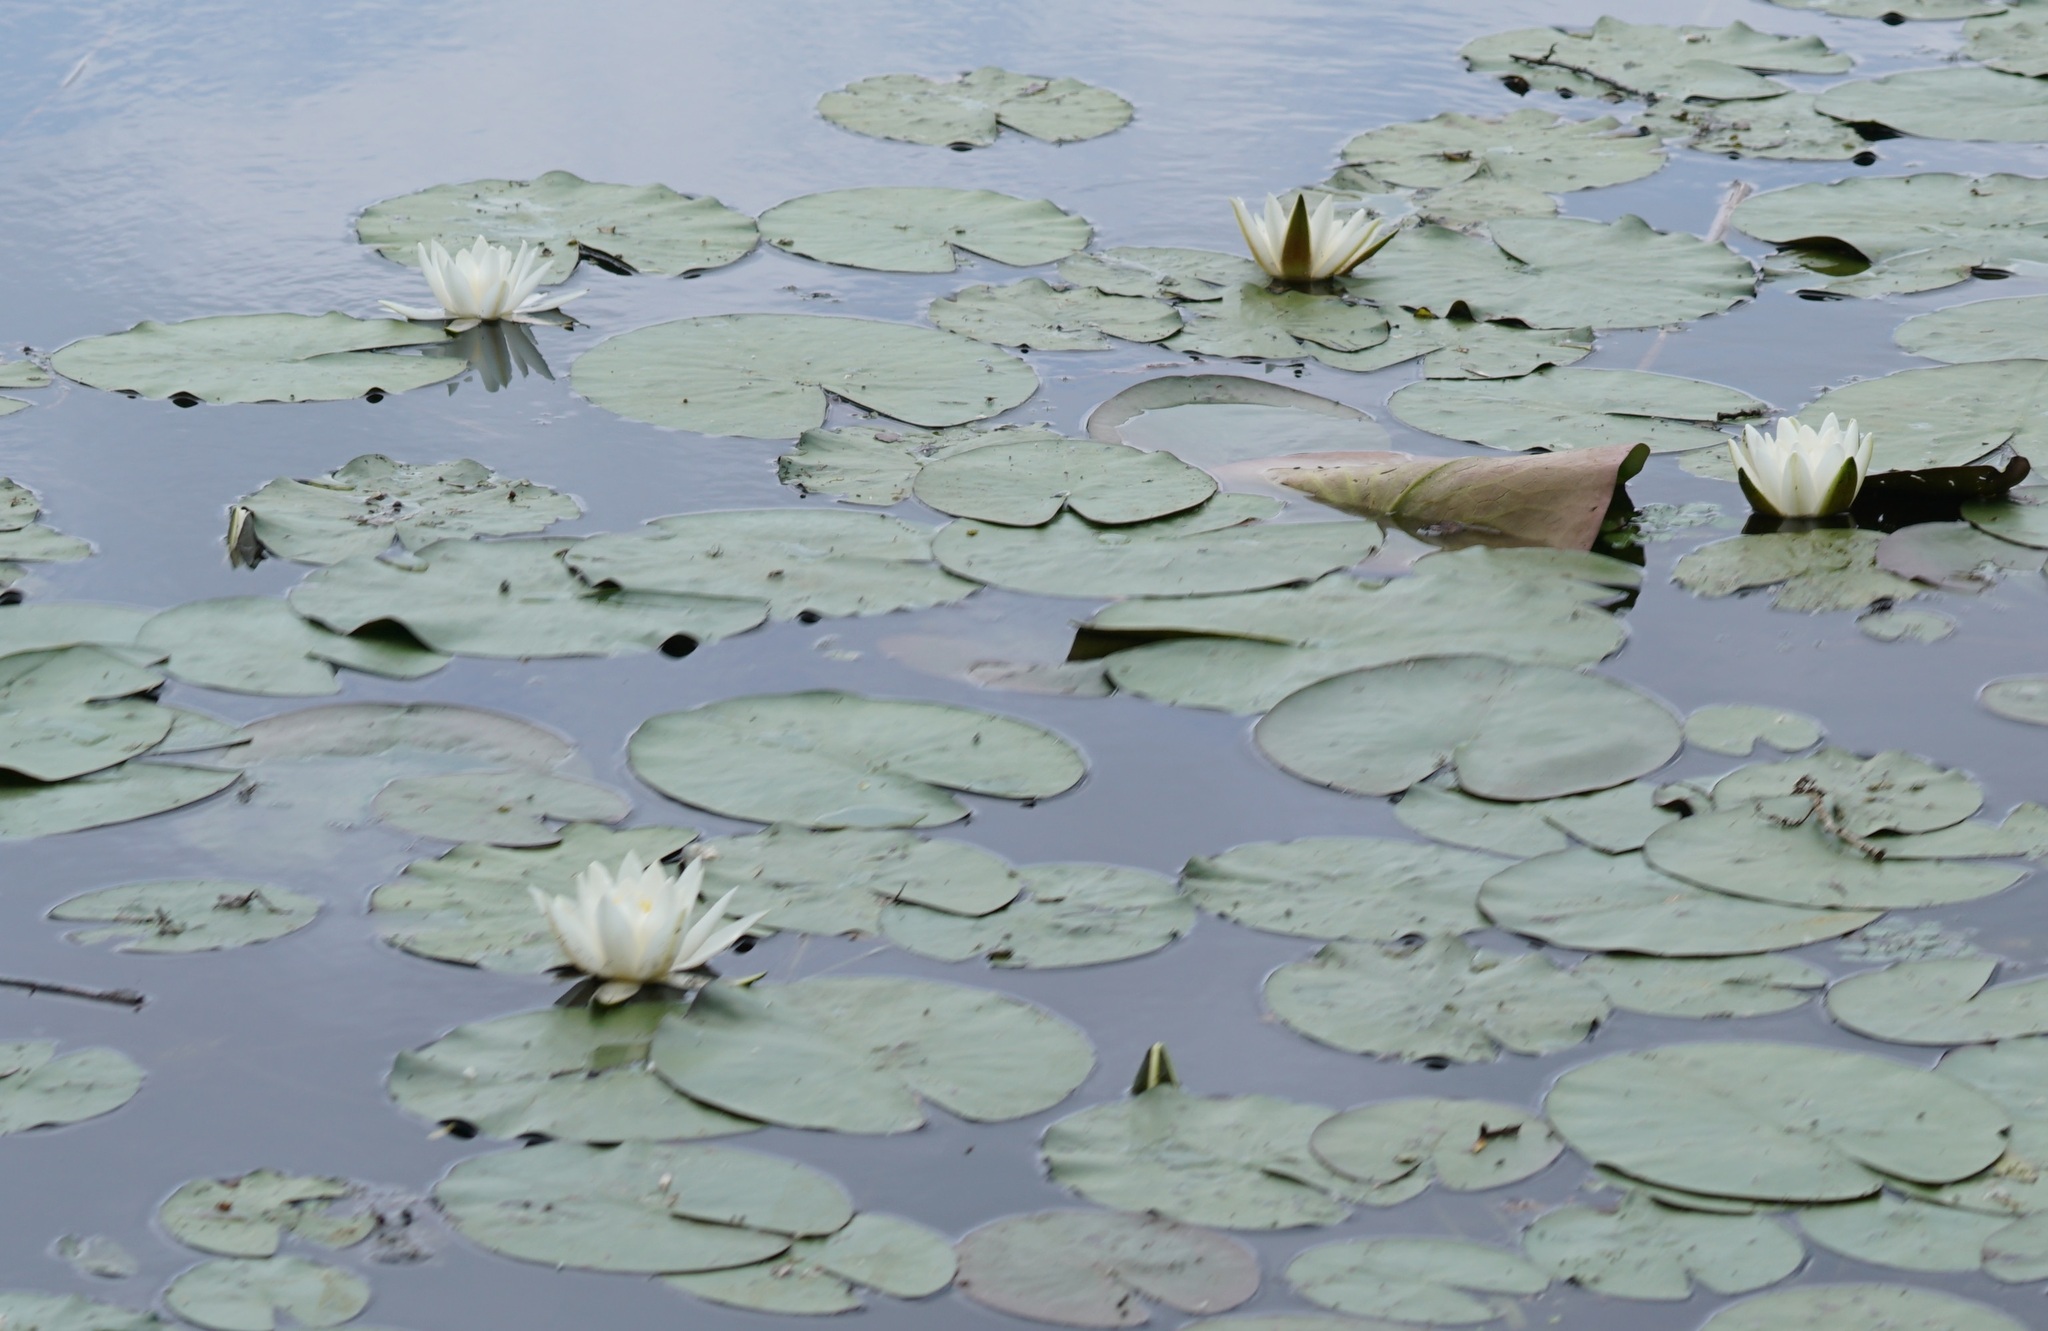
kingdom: Plantae
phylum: Tracheophyta
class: Magnoliopsida
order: Nymphaeales
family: Nymphaeaceae
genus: Nymphaea
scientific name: Nymphaea alba
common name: White water-lily
